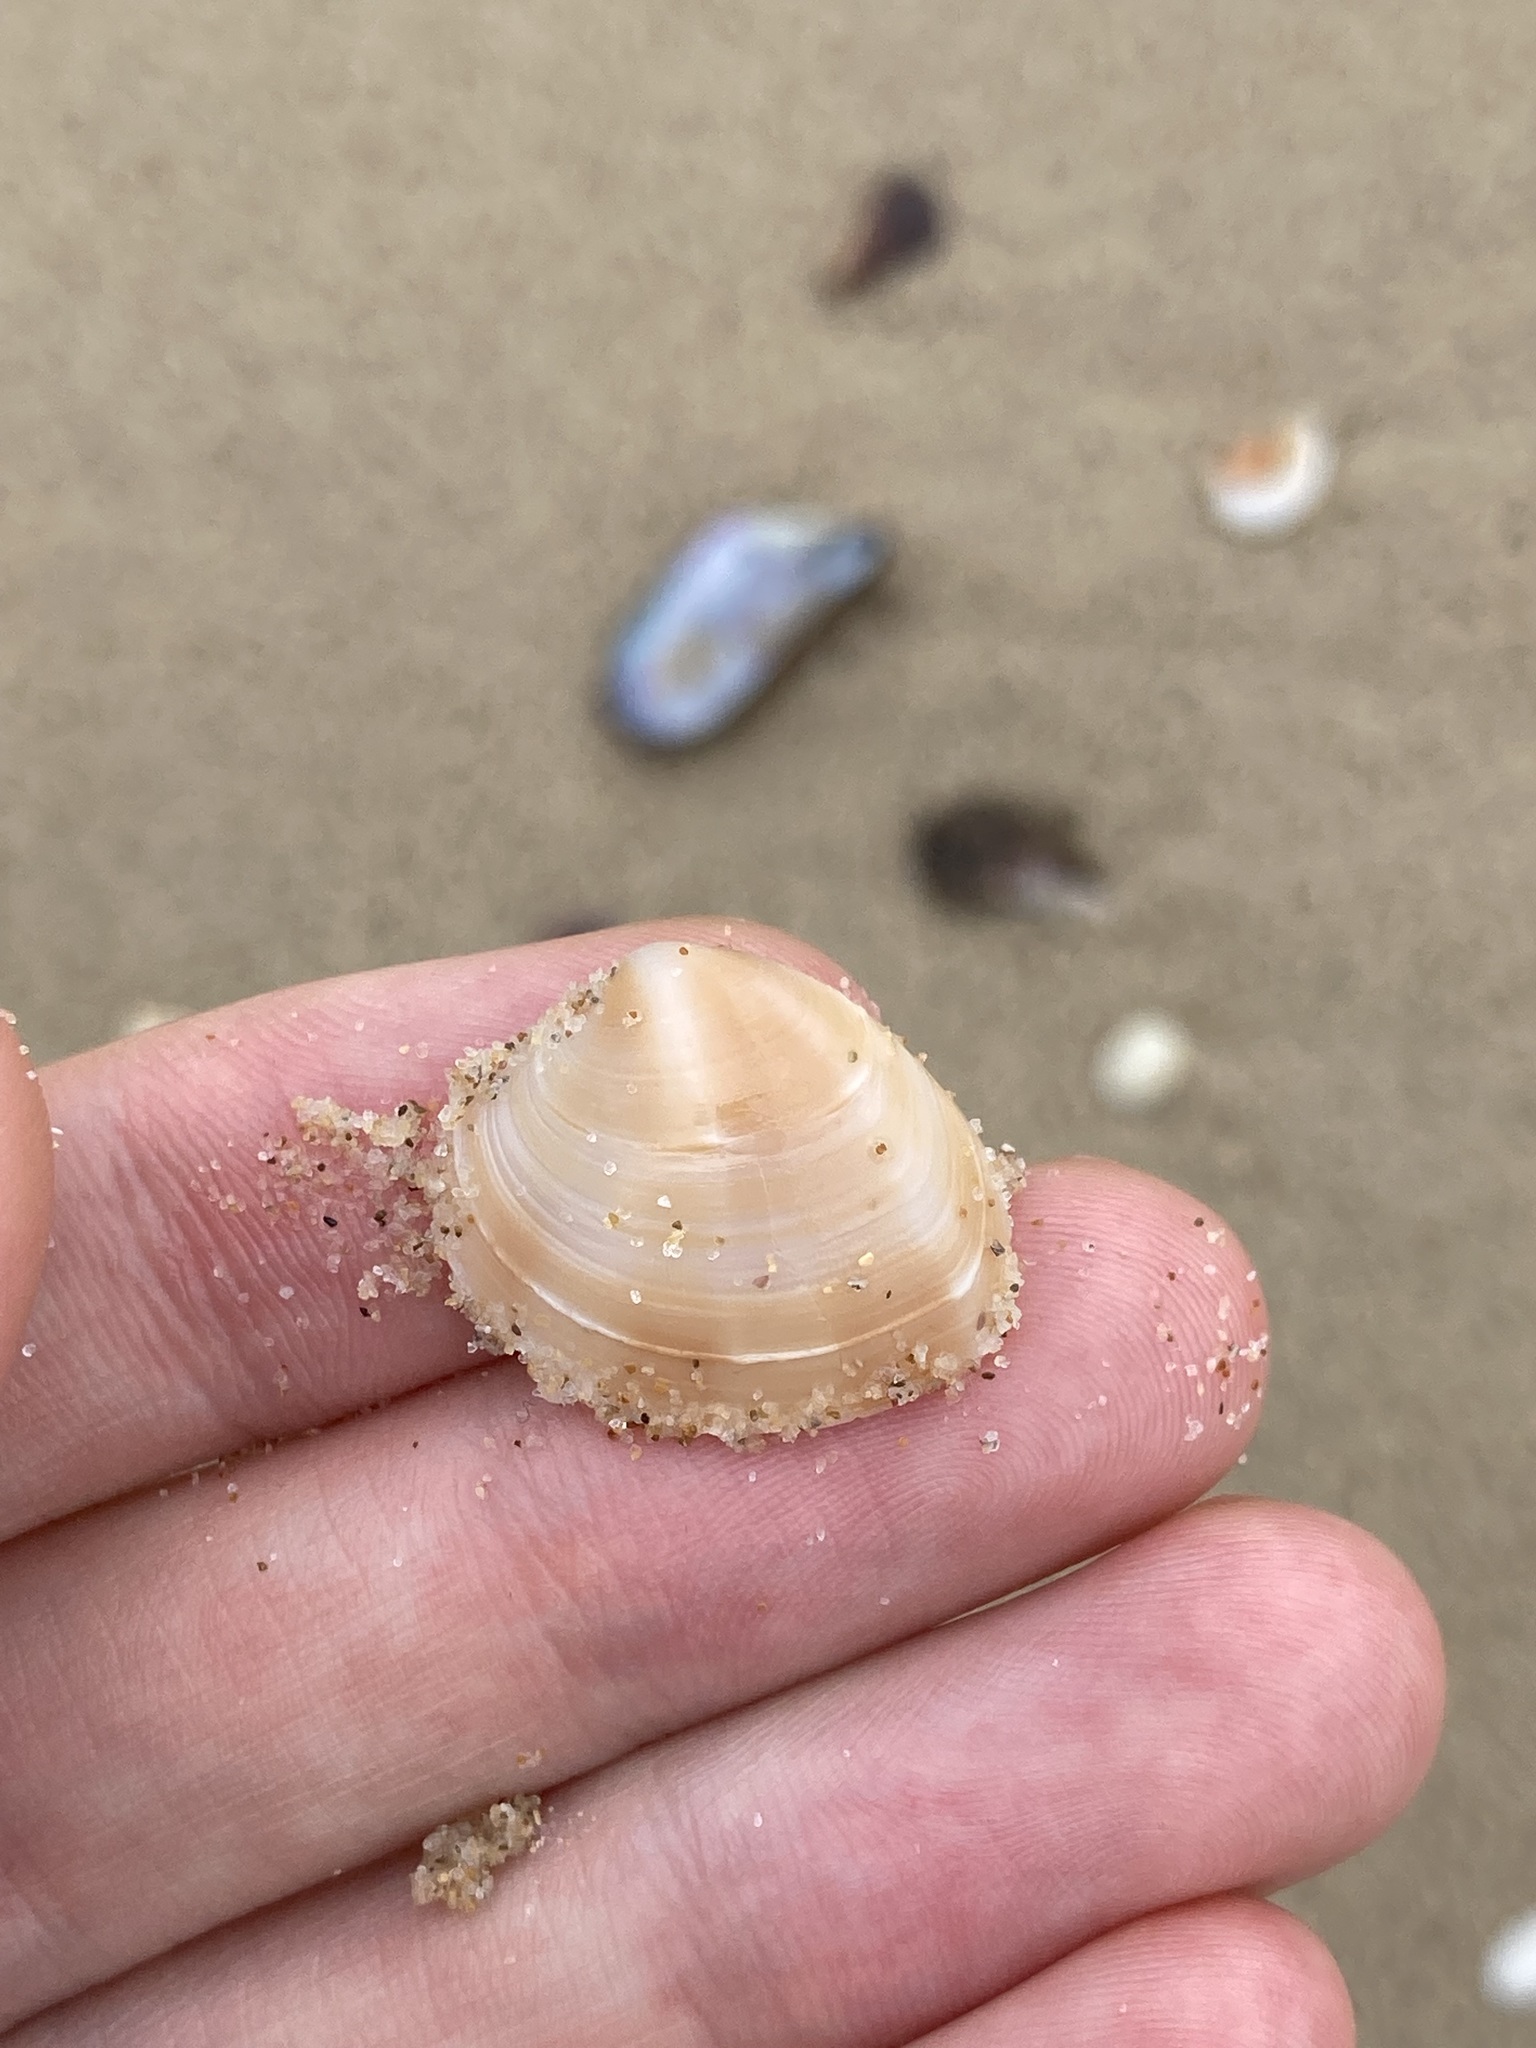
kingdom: Animalia
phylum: Mollusca
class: Bivalvia
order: Venerida
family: Veneridae
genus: Bassina
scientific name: Bassina jacksonii
